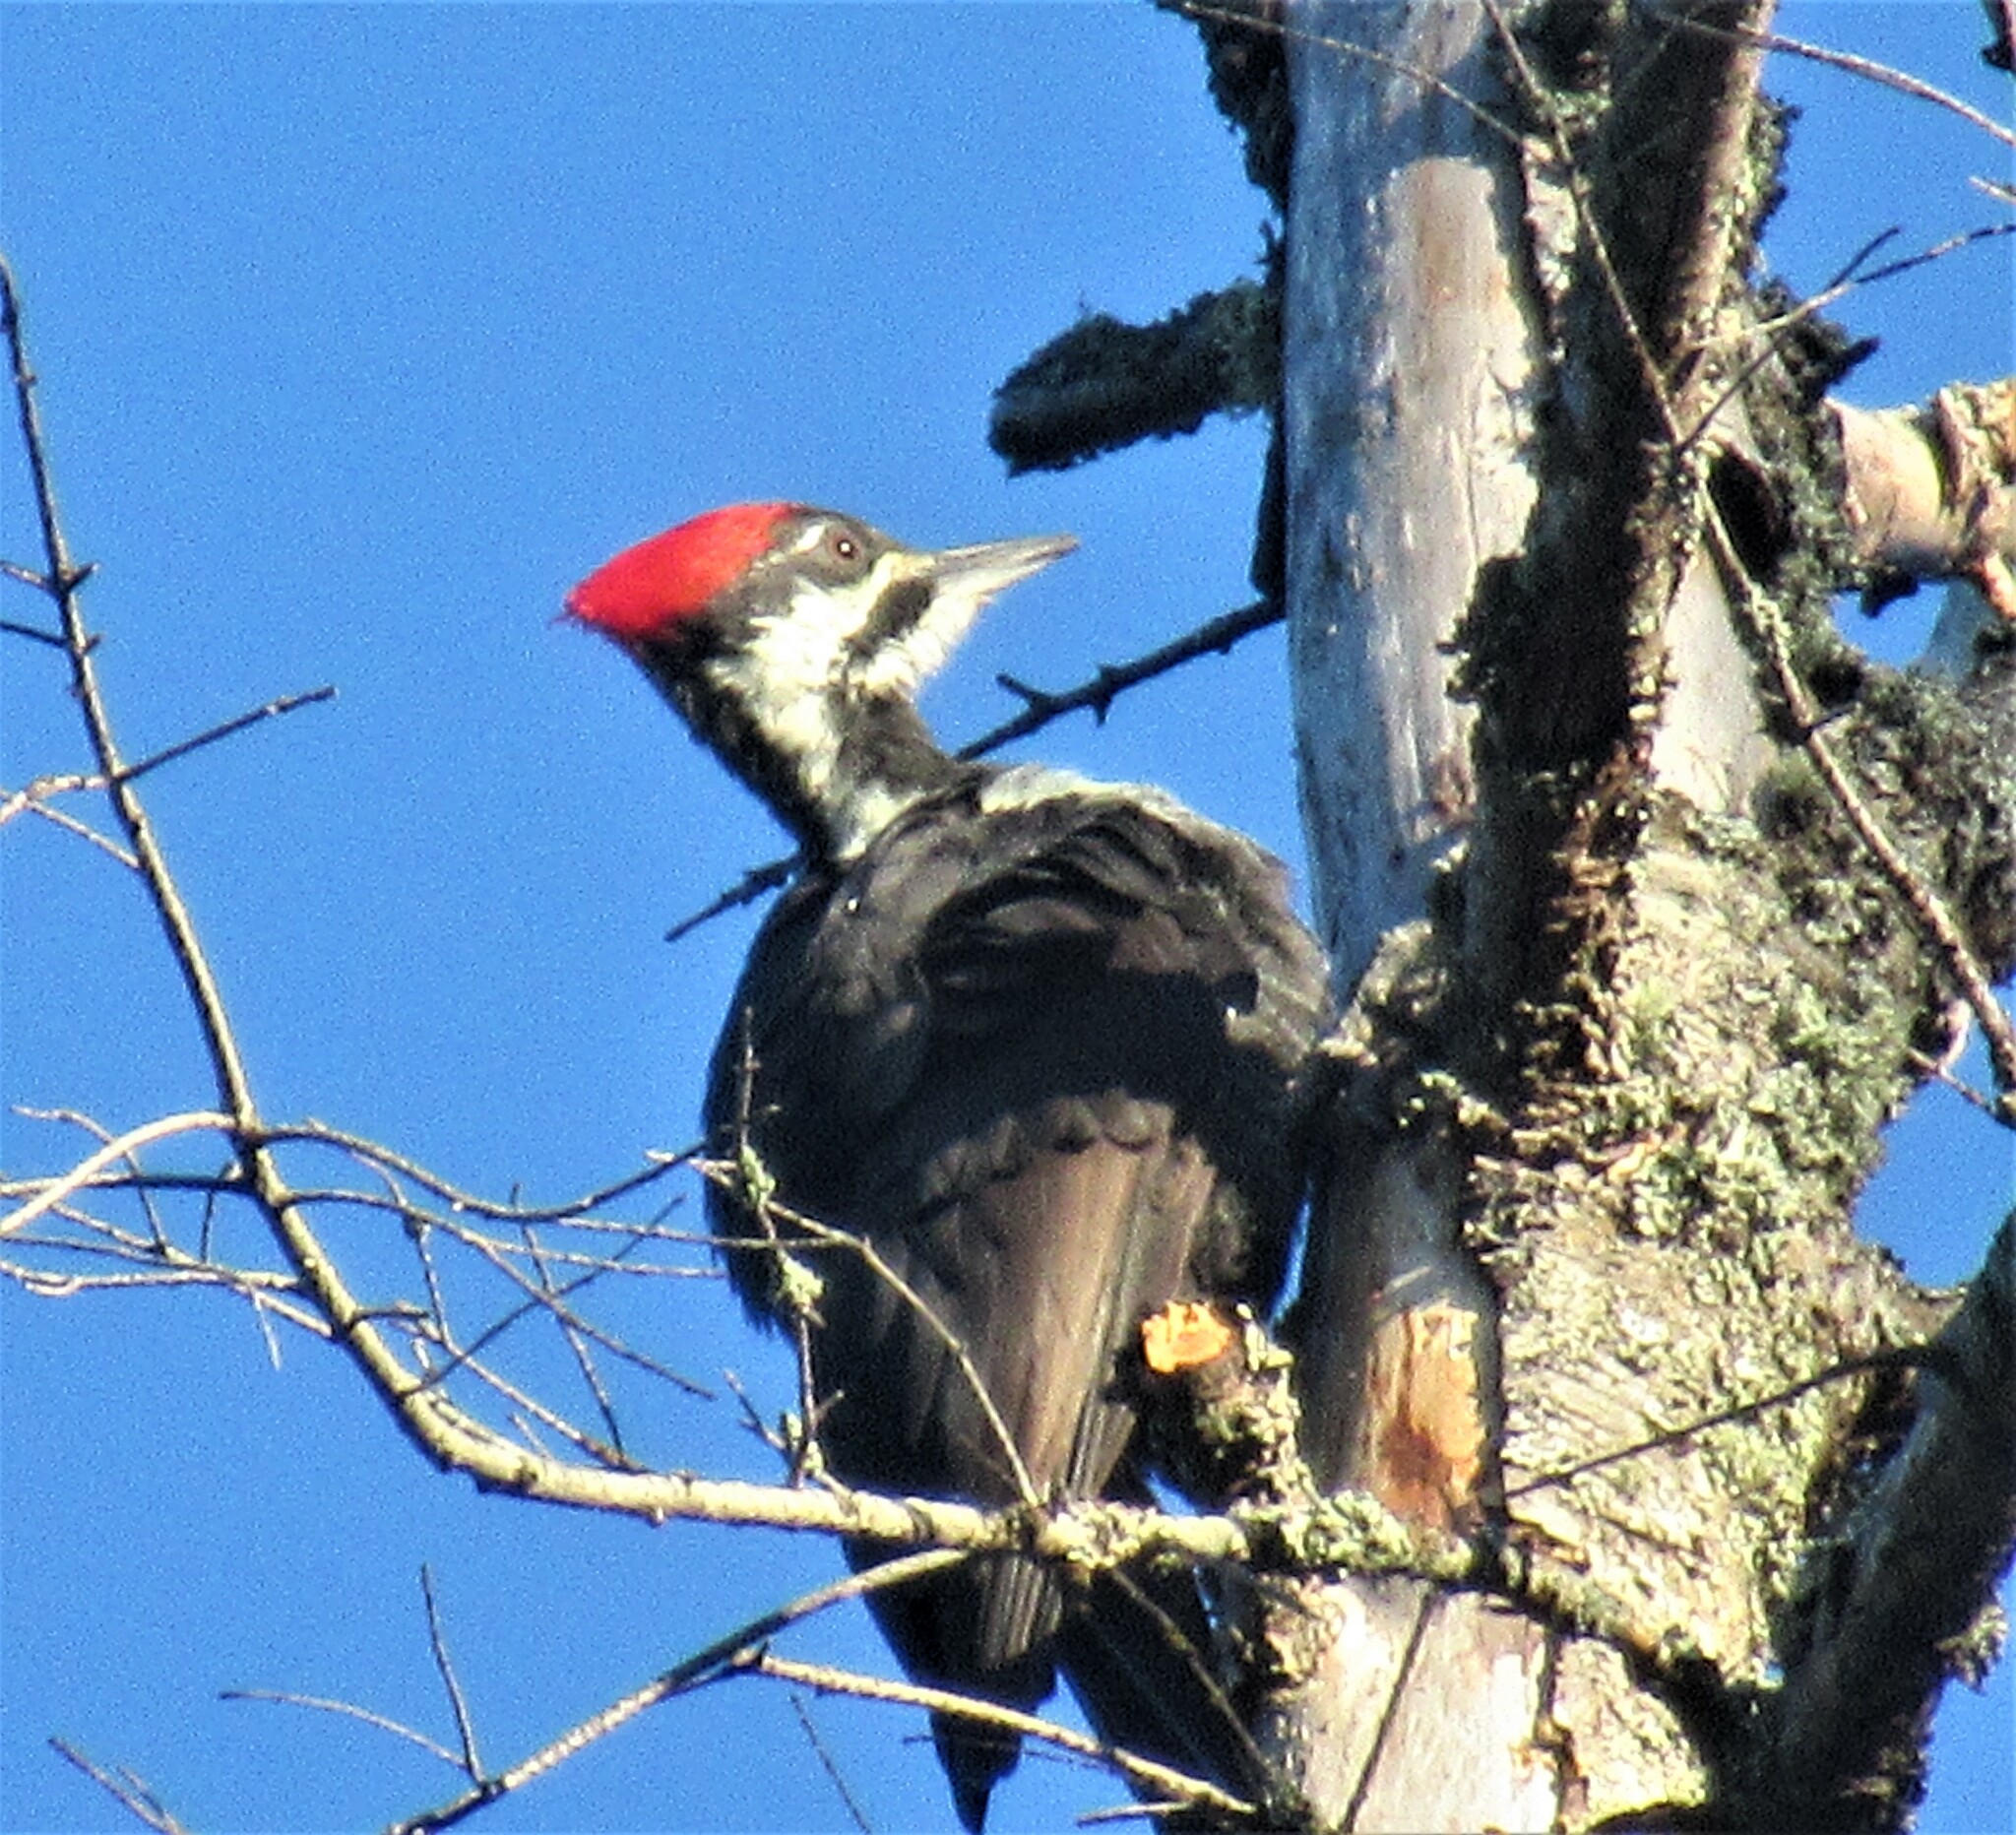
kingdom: Animalia
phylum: Chordata
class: Aves
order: Piciformes
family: Picidae
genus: Dryocopus
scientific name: Dryocopus pileatus
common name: Pileated woodpecker
